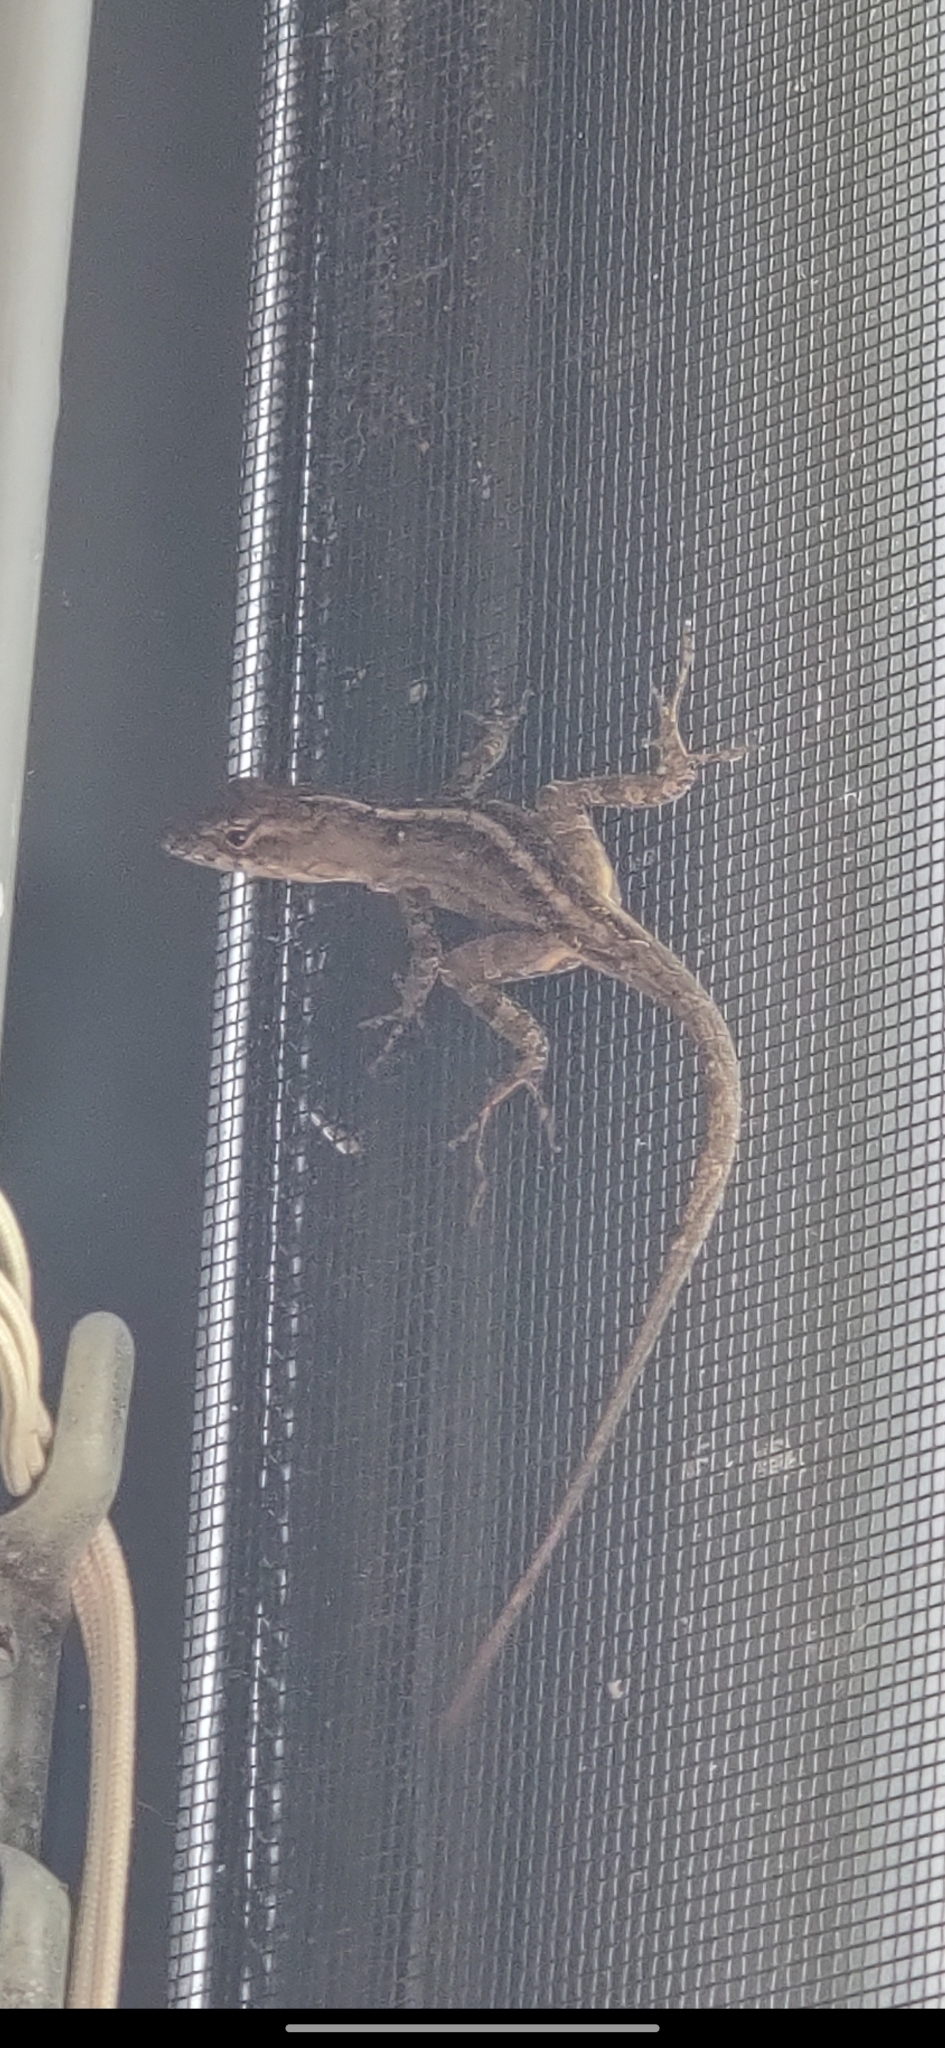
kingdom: Animalia
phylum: Chordata
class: Squamata
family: Dactyloidae
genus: Anolis
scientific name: Anolis sagrei
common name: Brown anole
